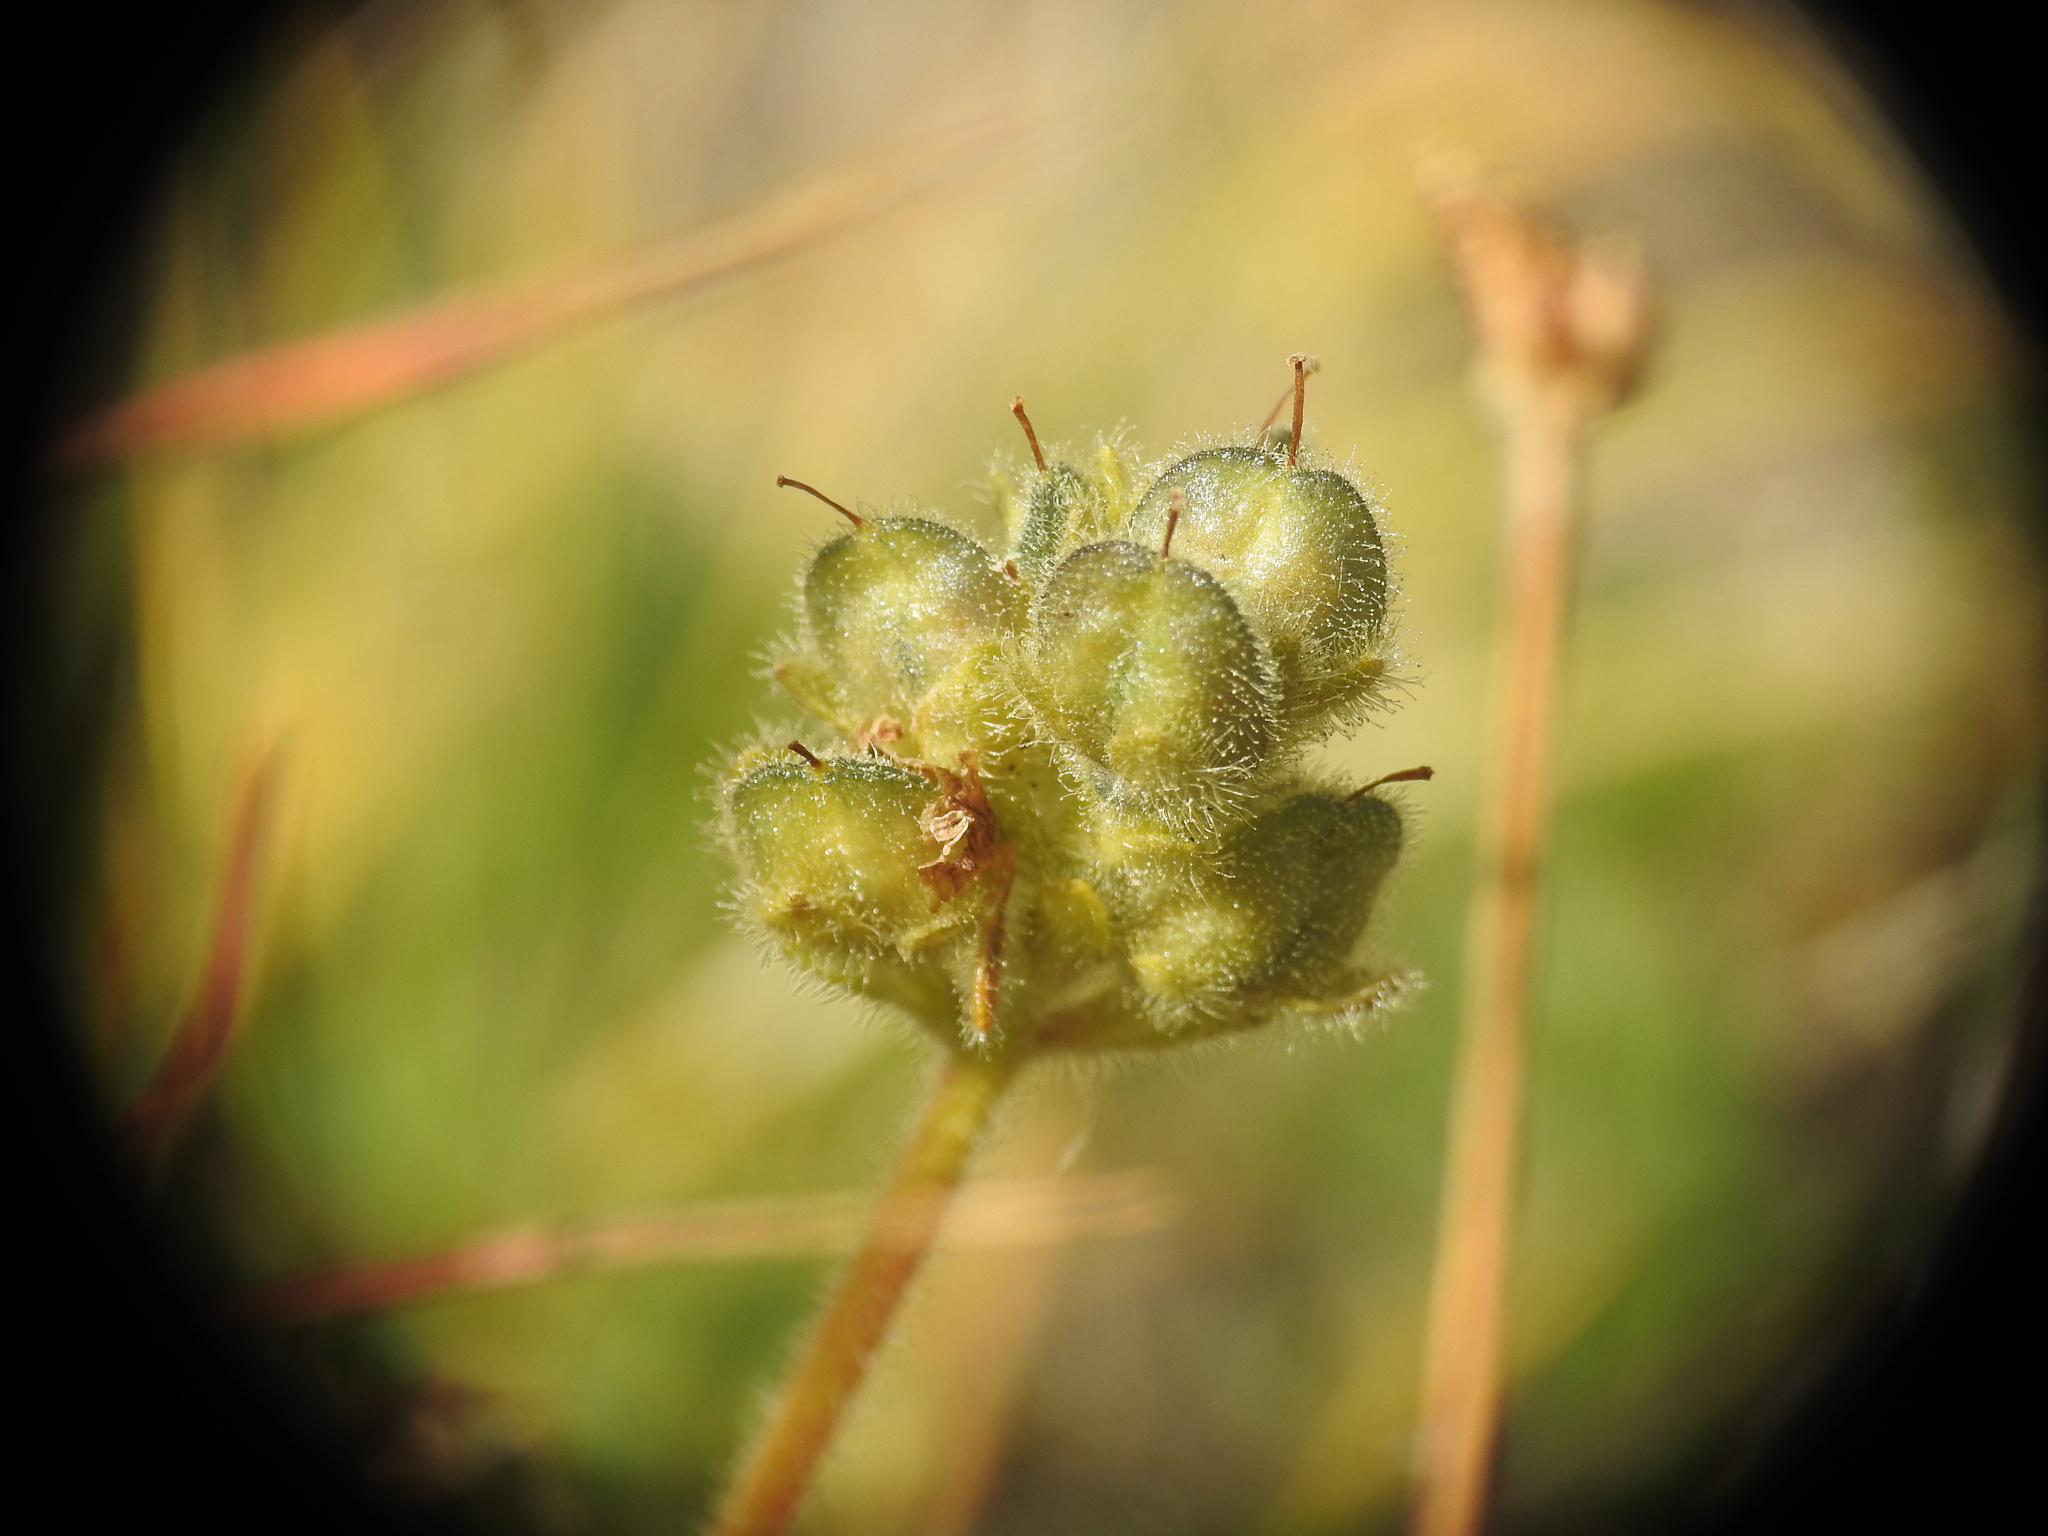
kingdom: Plantae
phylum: Tracheophyta
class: Magnoliopsida
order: Lamiales
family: Plantaginaceae
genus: Veronica
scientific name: Veronica bellidioides
